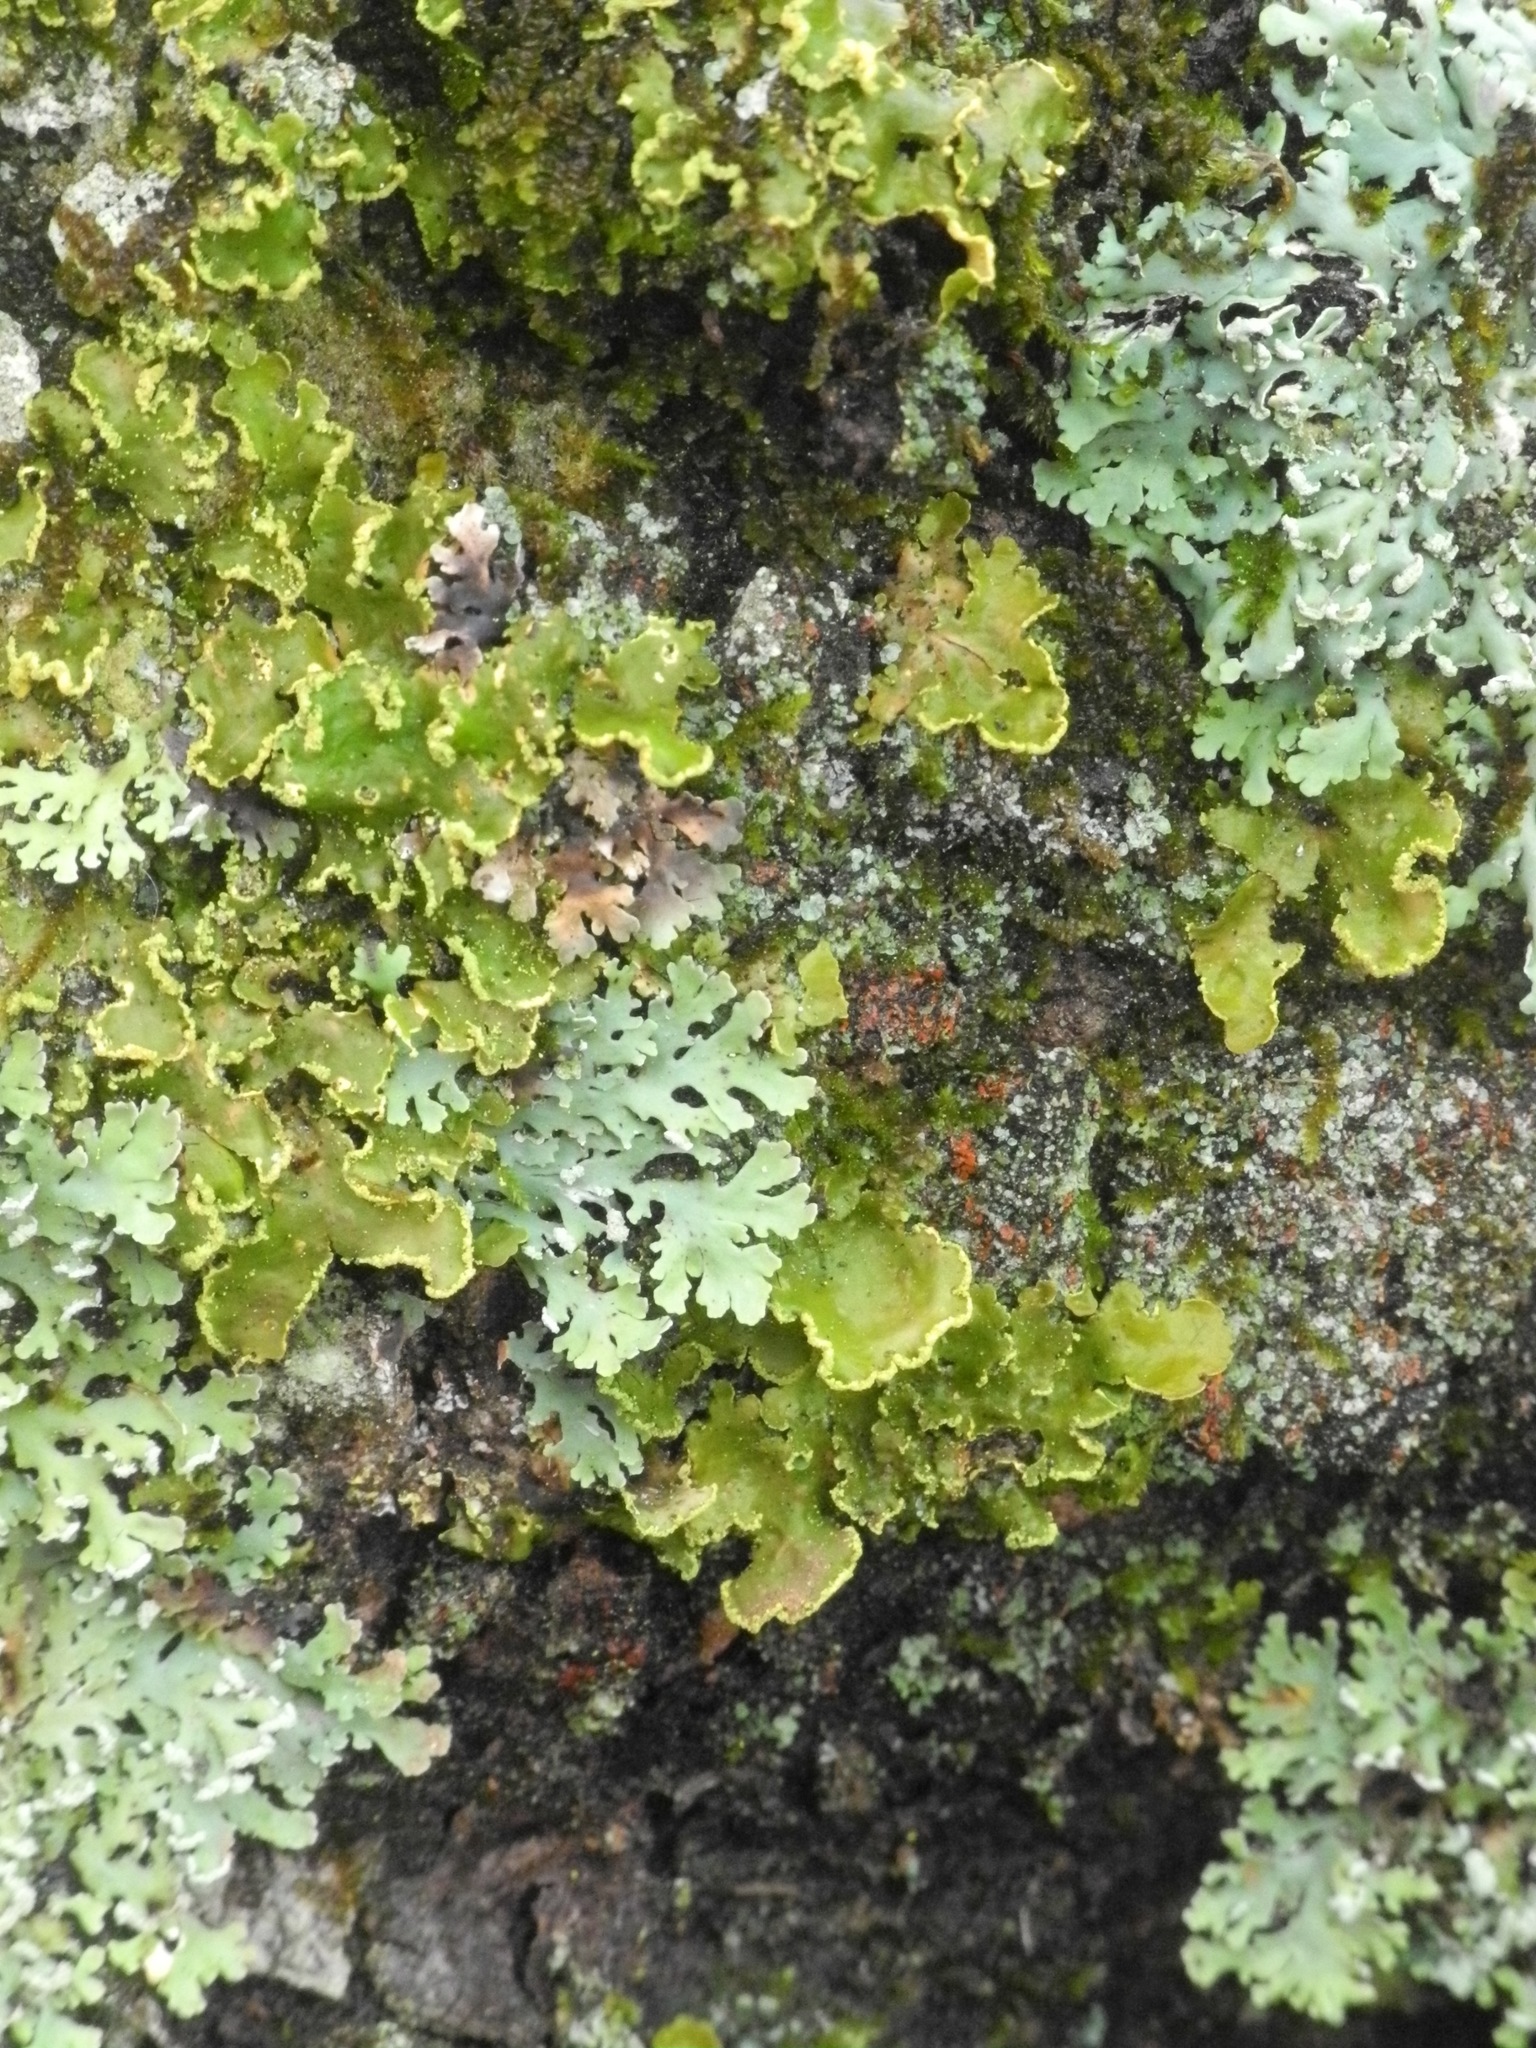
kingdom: Fungi
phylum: Ascomycota
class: Lecanoromycetes
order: Peltigerales
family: Lobariaceae
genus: Pseudocyphellaria
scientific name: Pseudocyphellaria aurata
